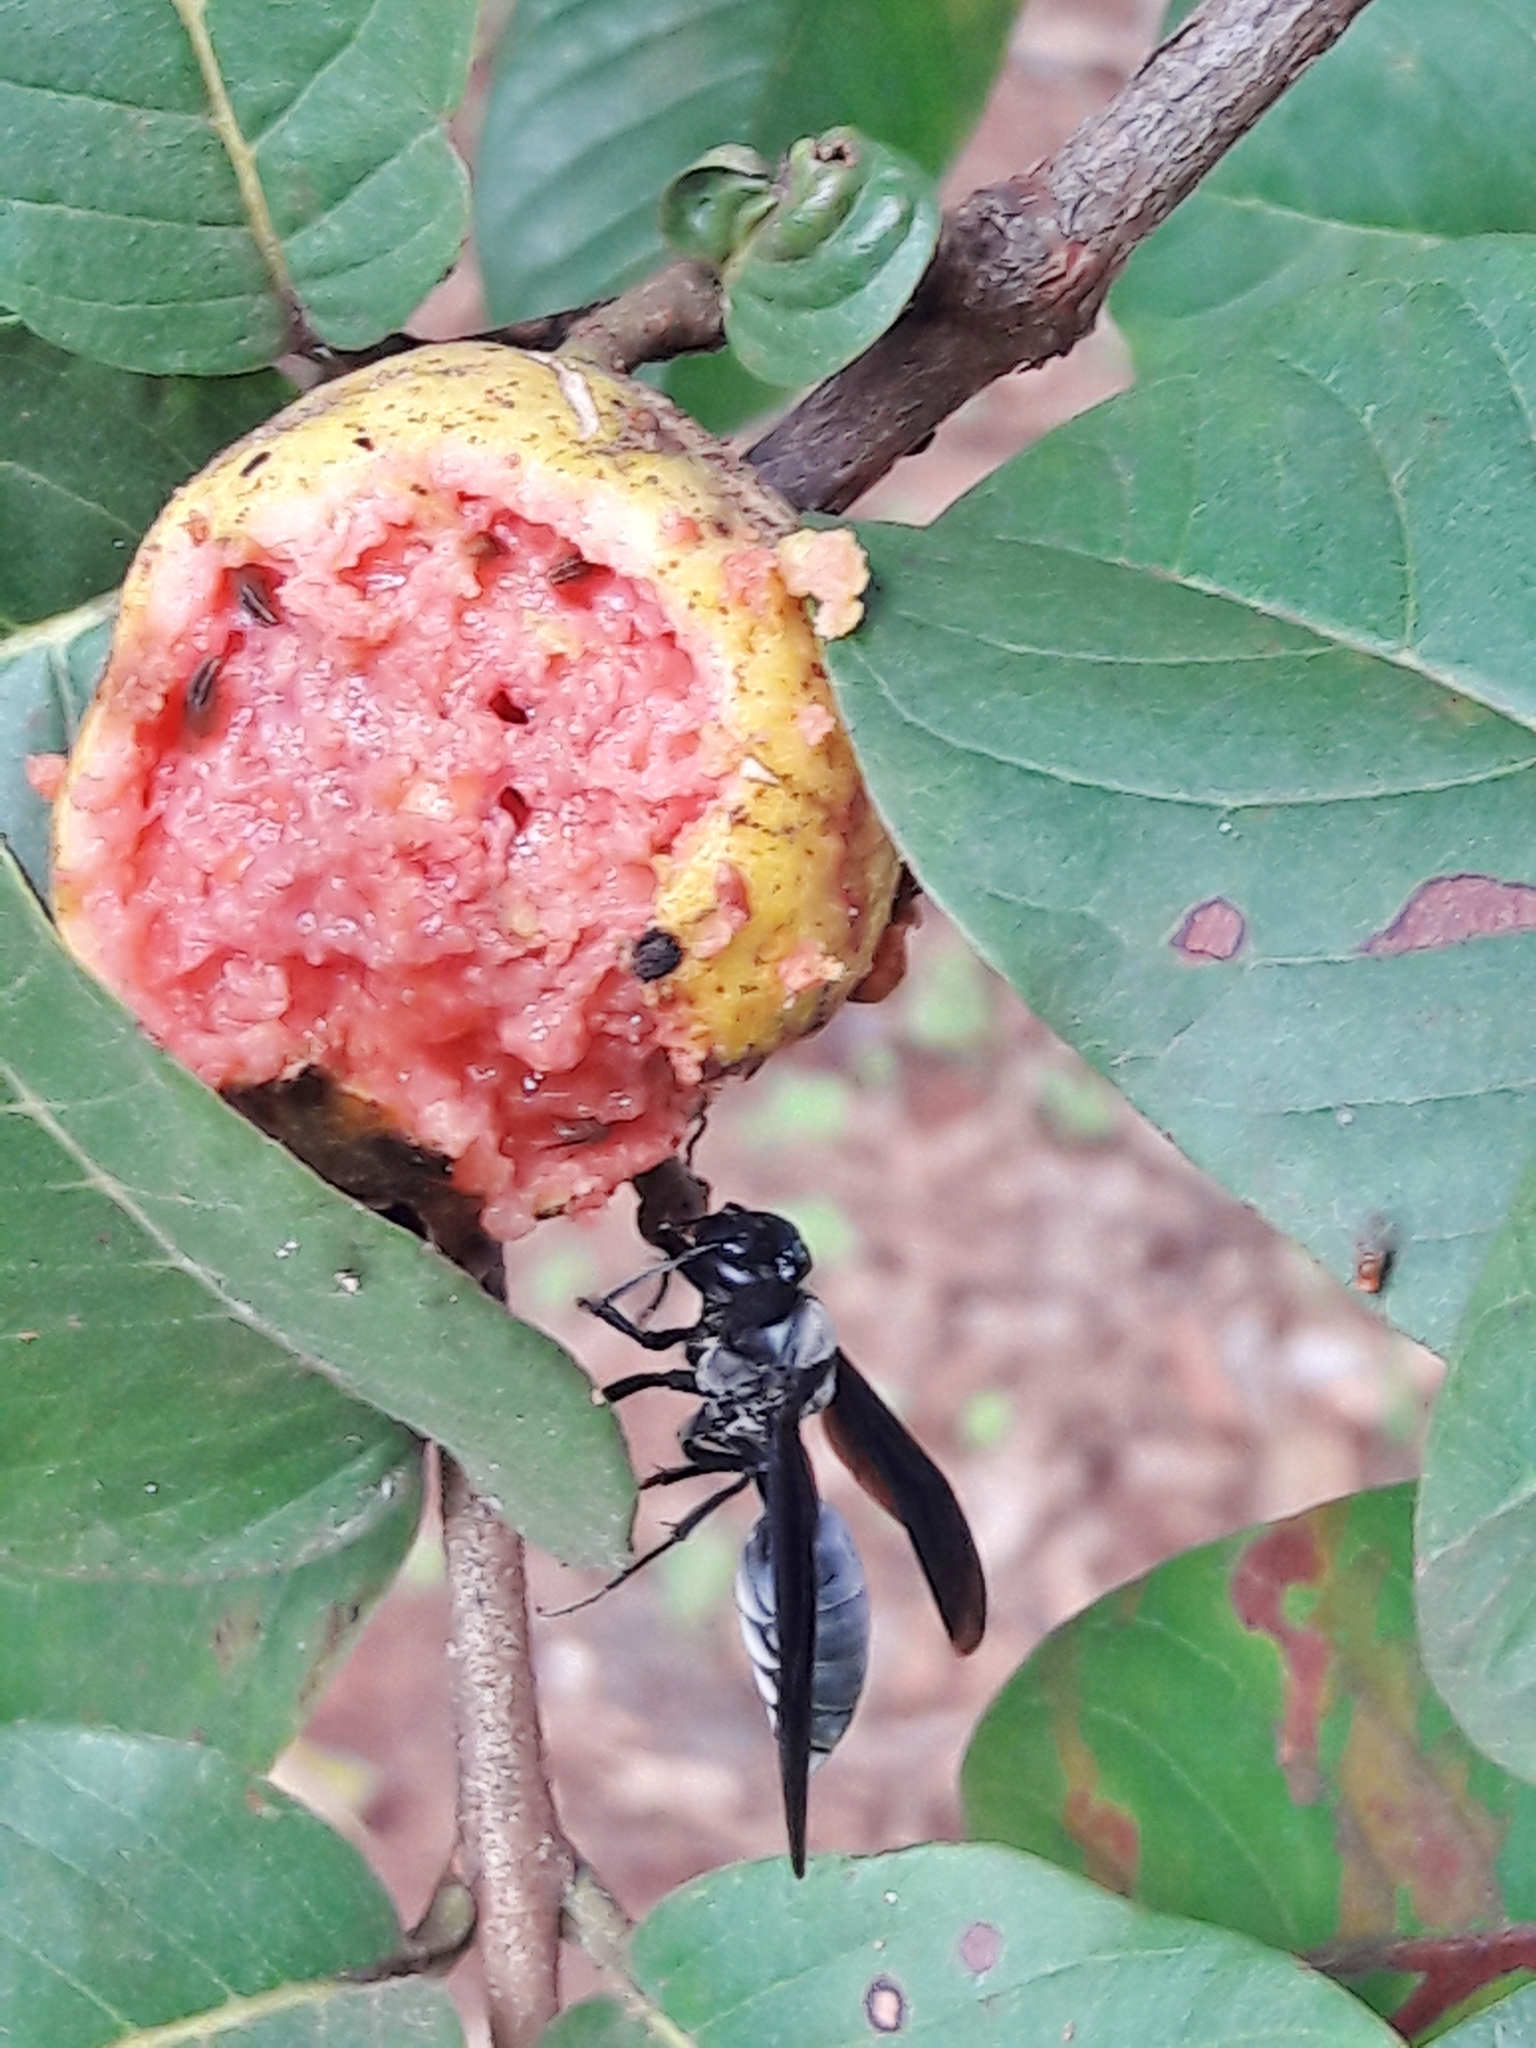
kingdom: Animalia
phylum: Arthropoda
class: Insecta
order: Hymenoptera
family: Vespidae
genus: Synoeca
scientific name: Synoeca surinama
